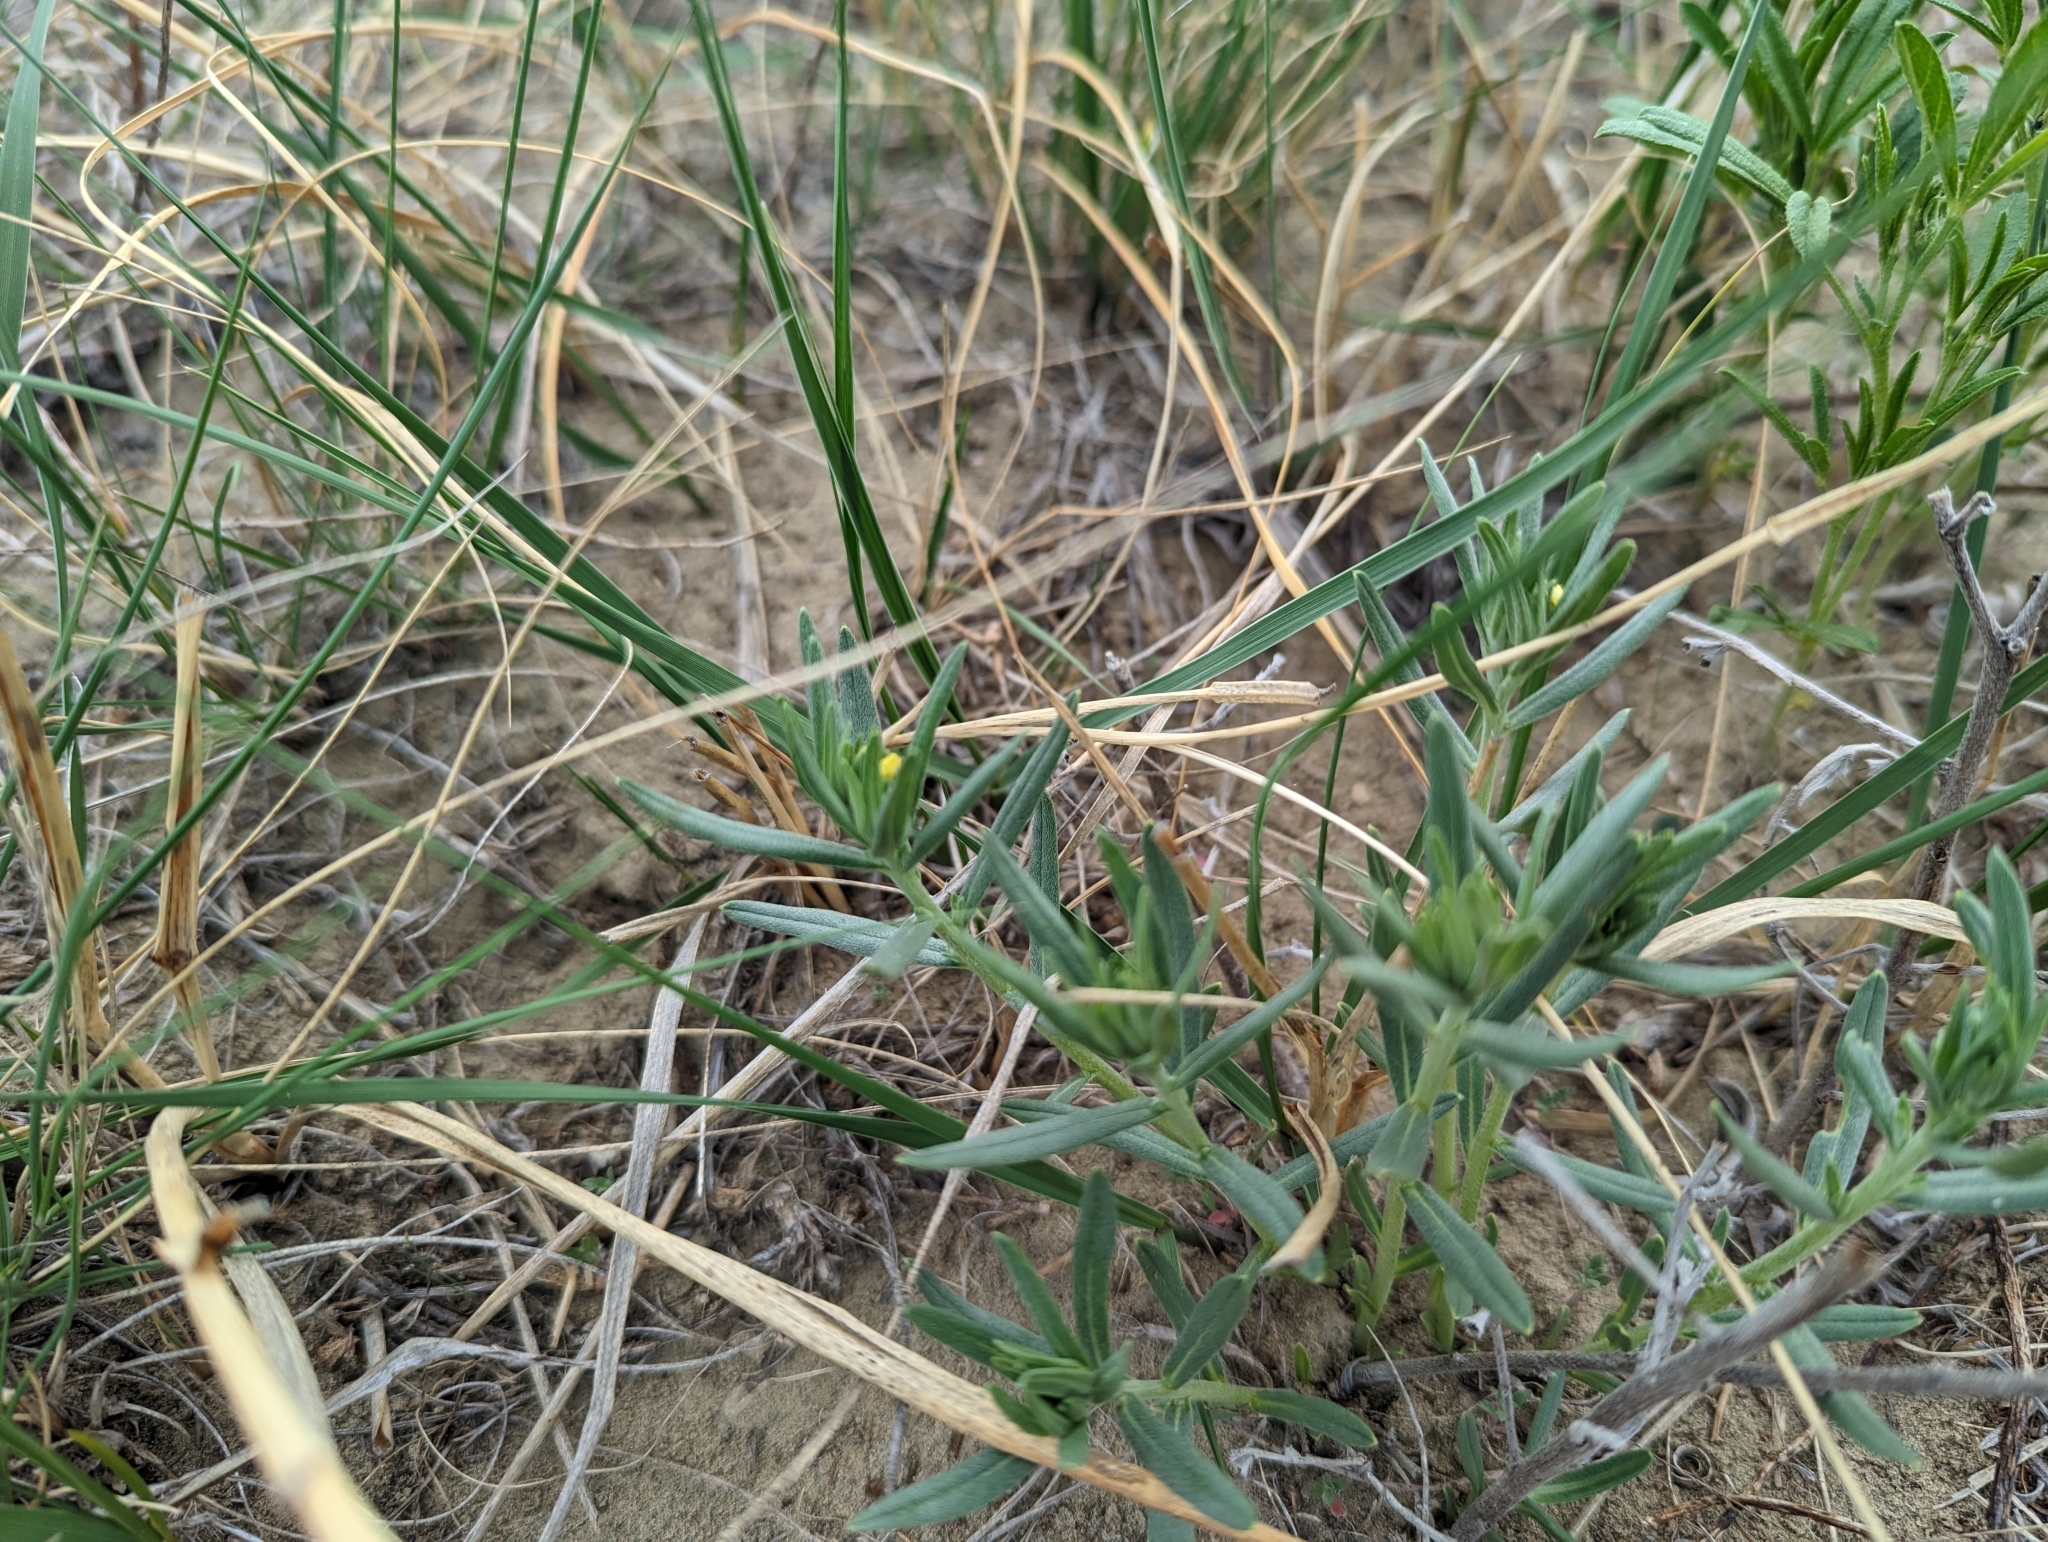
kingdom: Plantae
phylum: Tracheophyta
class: Magnoliopsida
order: Boraginales
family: Boraginaceae
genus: Lithospermum
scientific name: Lithospermum incisum
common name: Fringed gromwell
